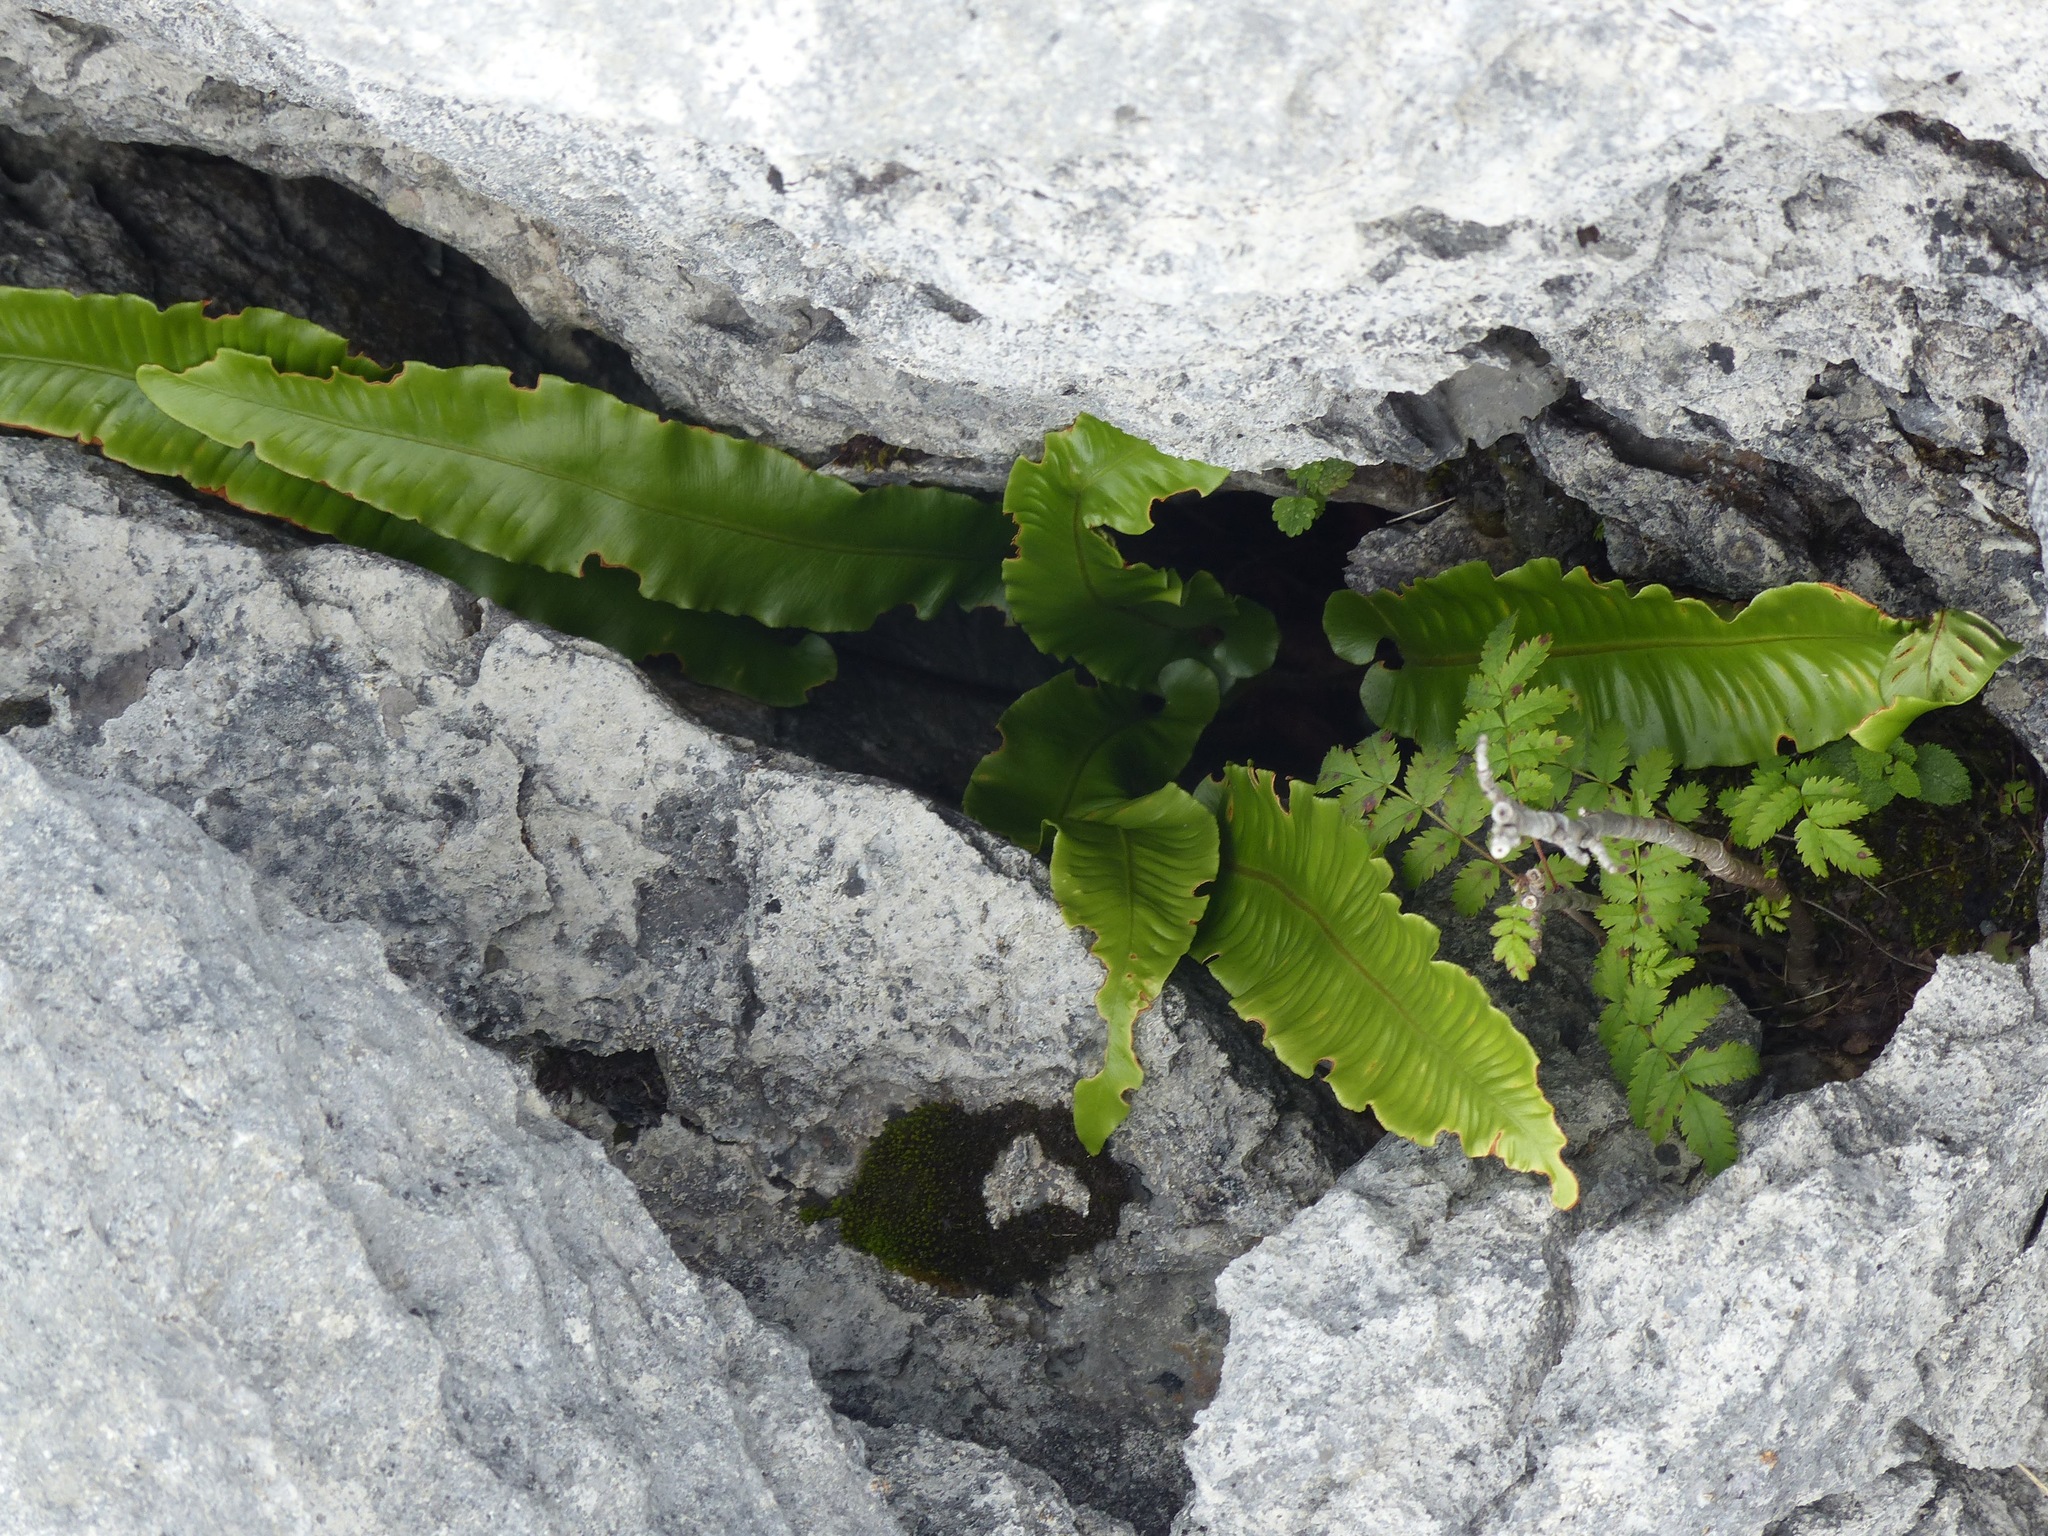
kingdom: Plantae
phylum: Tracheophyta
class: Polypodiopsida
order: Polypodiales
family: Aspleniaceae
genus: Asplenium
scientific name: Asplenium scolopendrium
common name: Hart's-tongue fern
